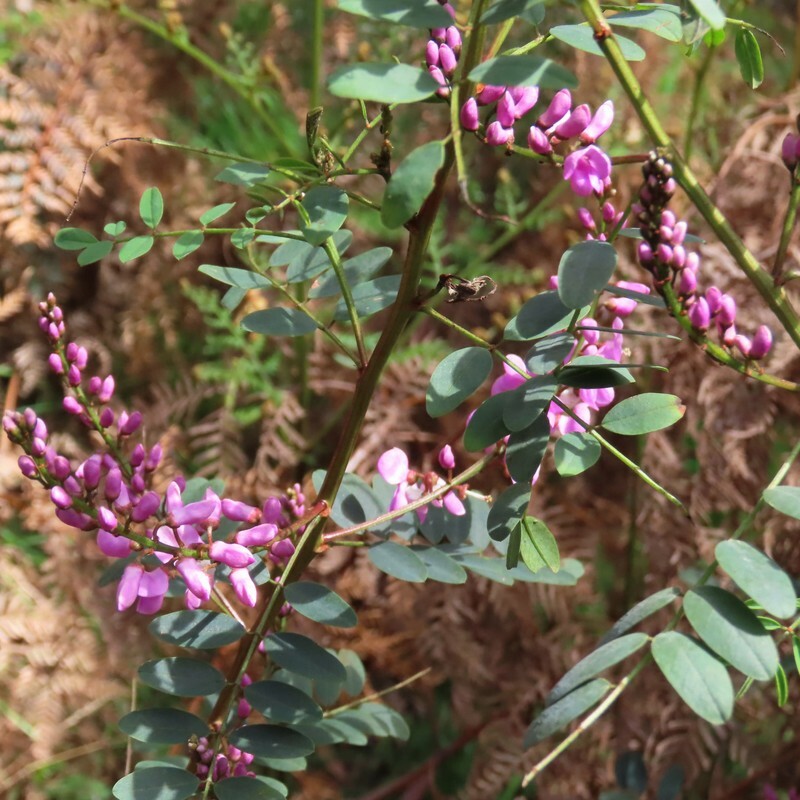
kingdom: Plantae
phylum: Tracheophyta
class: Magnoliopsida
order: Fabales
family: Fabaceae
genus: Indigofera
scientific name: Indigofera australis
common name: Australian indigo
